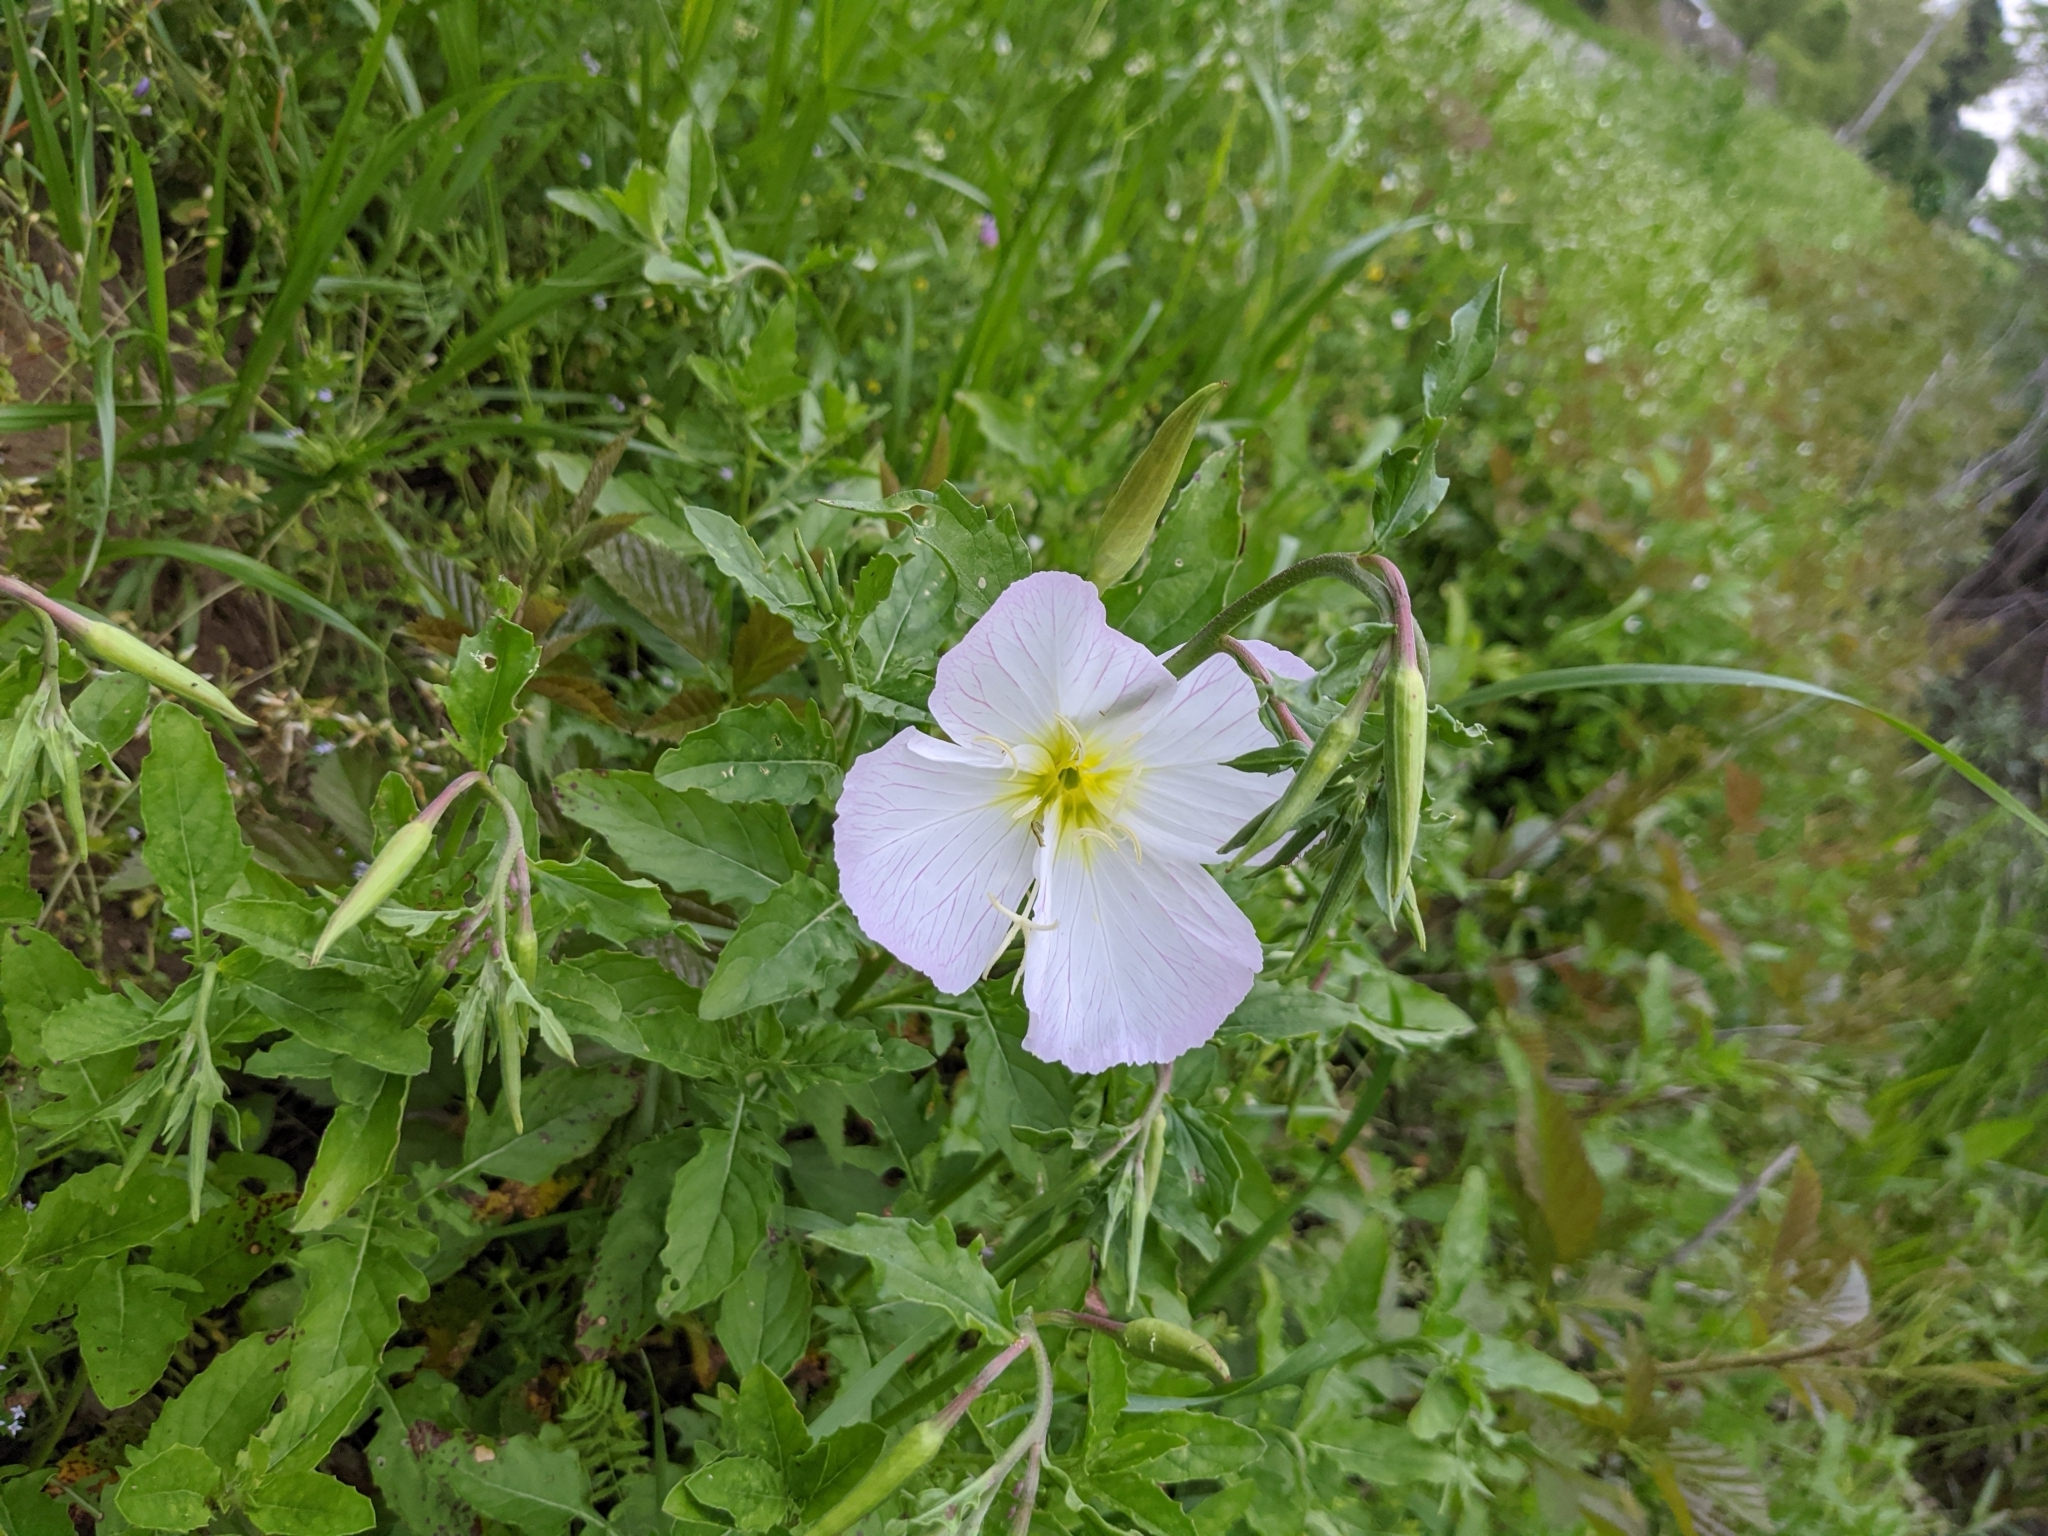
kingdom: Plantae
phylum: Tracheophyta
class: Magnoliopsida
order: Myrtales
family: Onagraceae
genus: Oenothera
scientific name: Oenothera speciosa
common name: White evening-primrose
